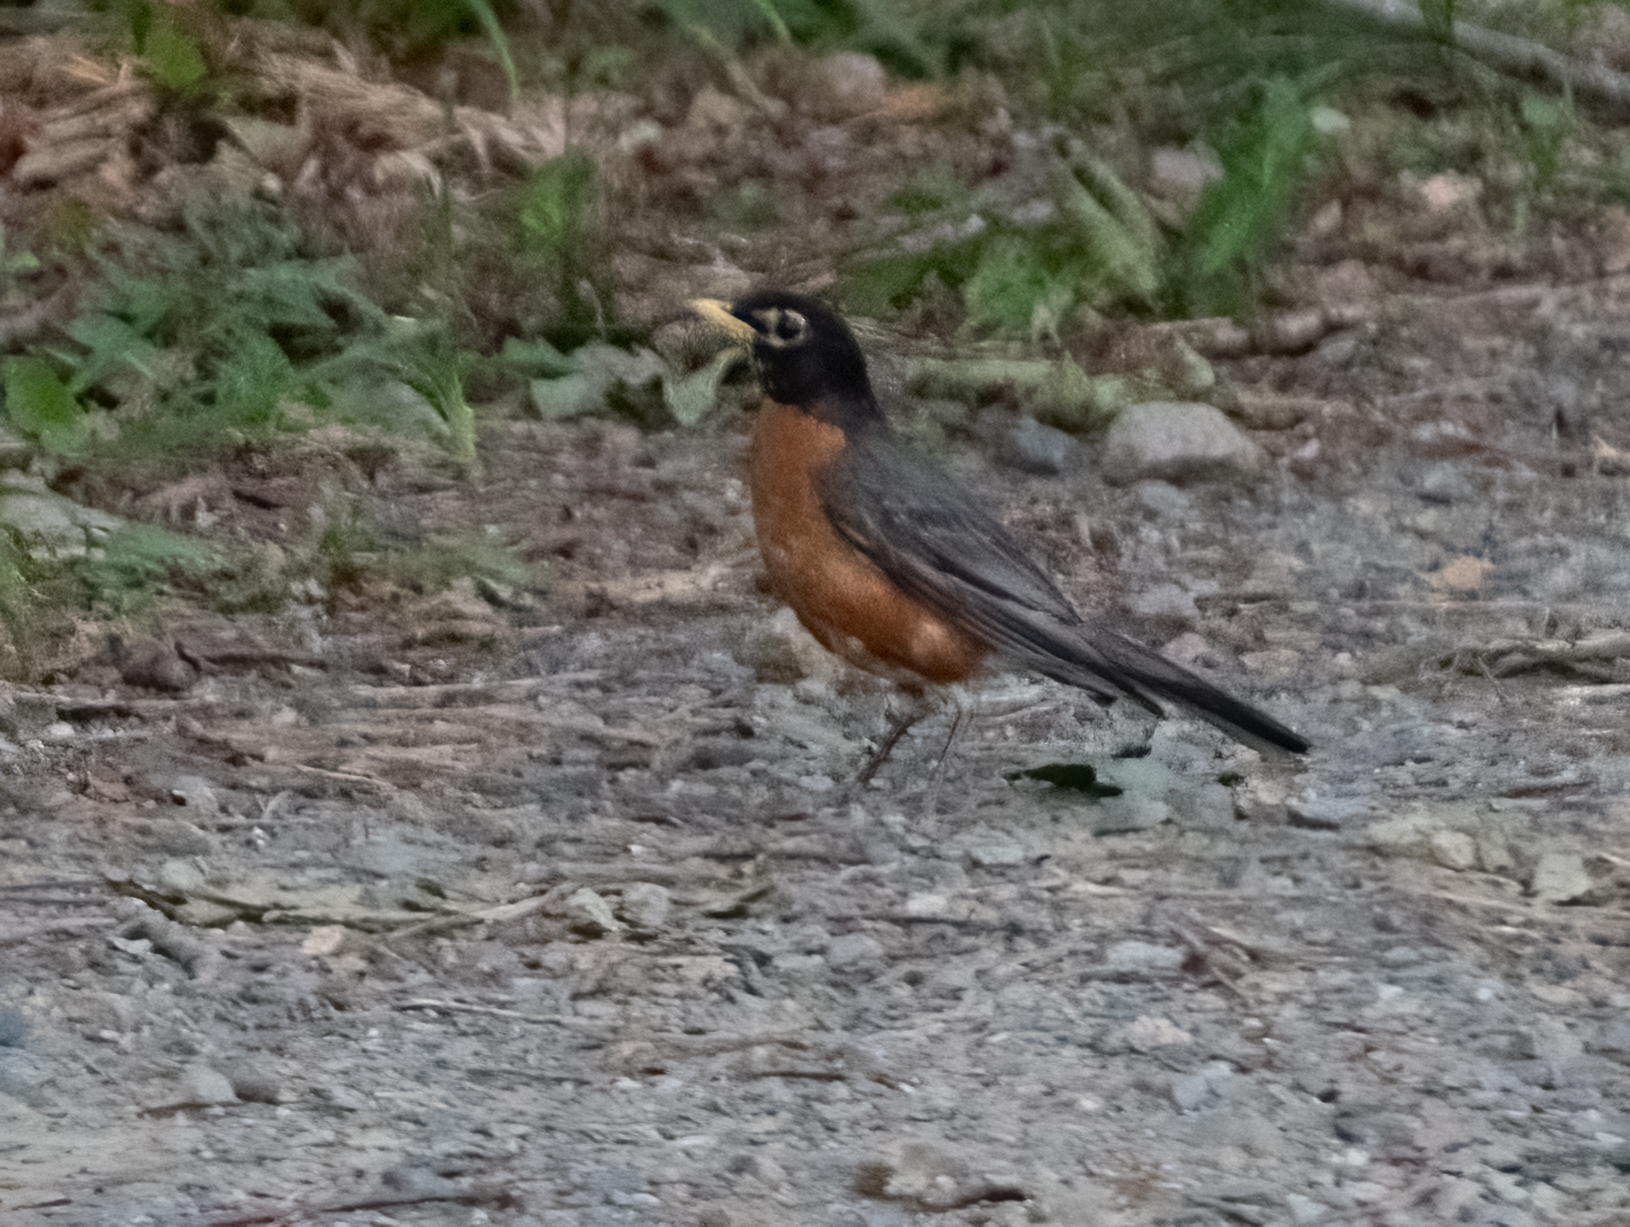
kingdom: Animalia
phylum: Chordata
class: Aves
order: Passeriformes
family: Turdidae
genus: Turdus
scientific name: Turdus migratorius
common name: American robin
